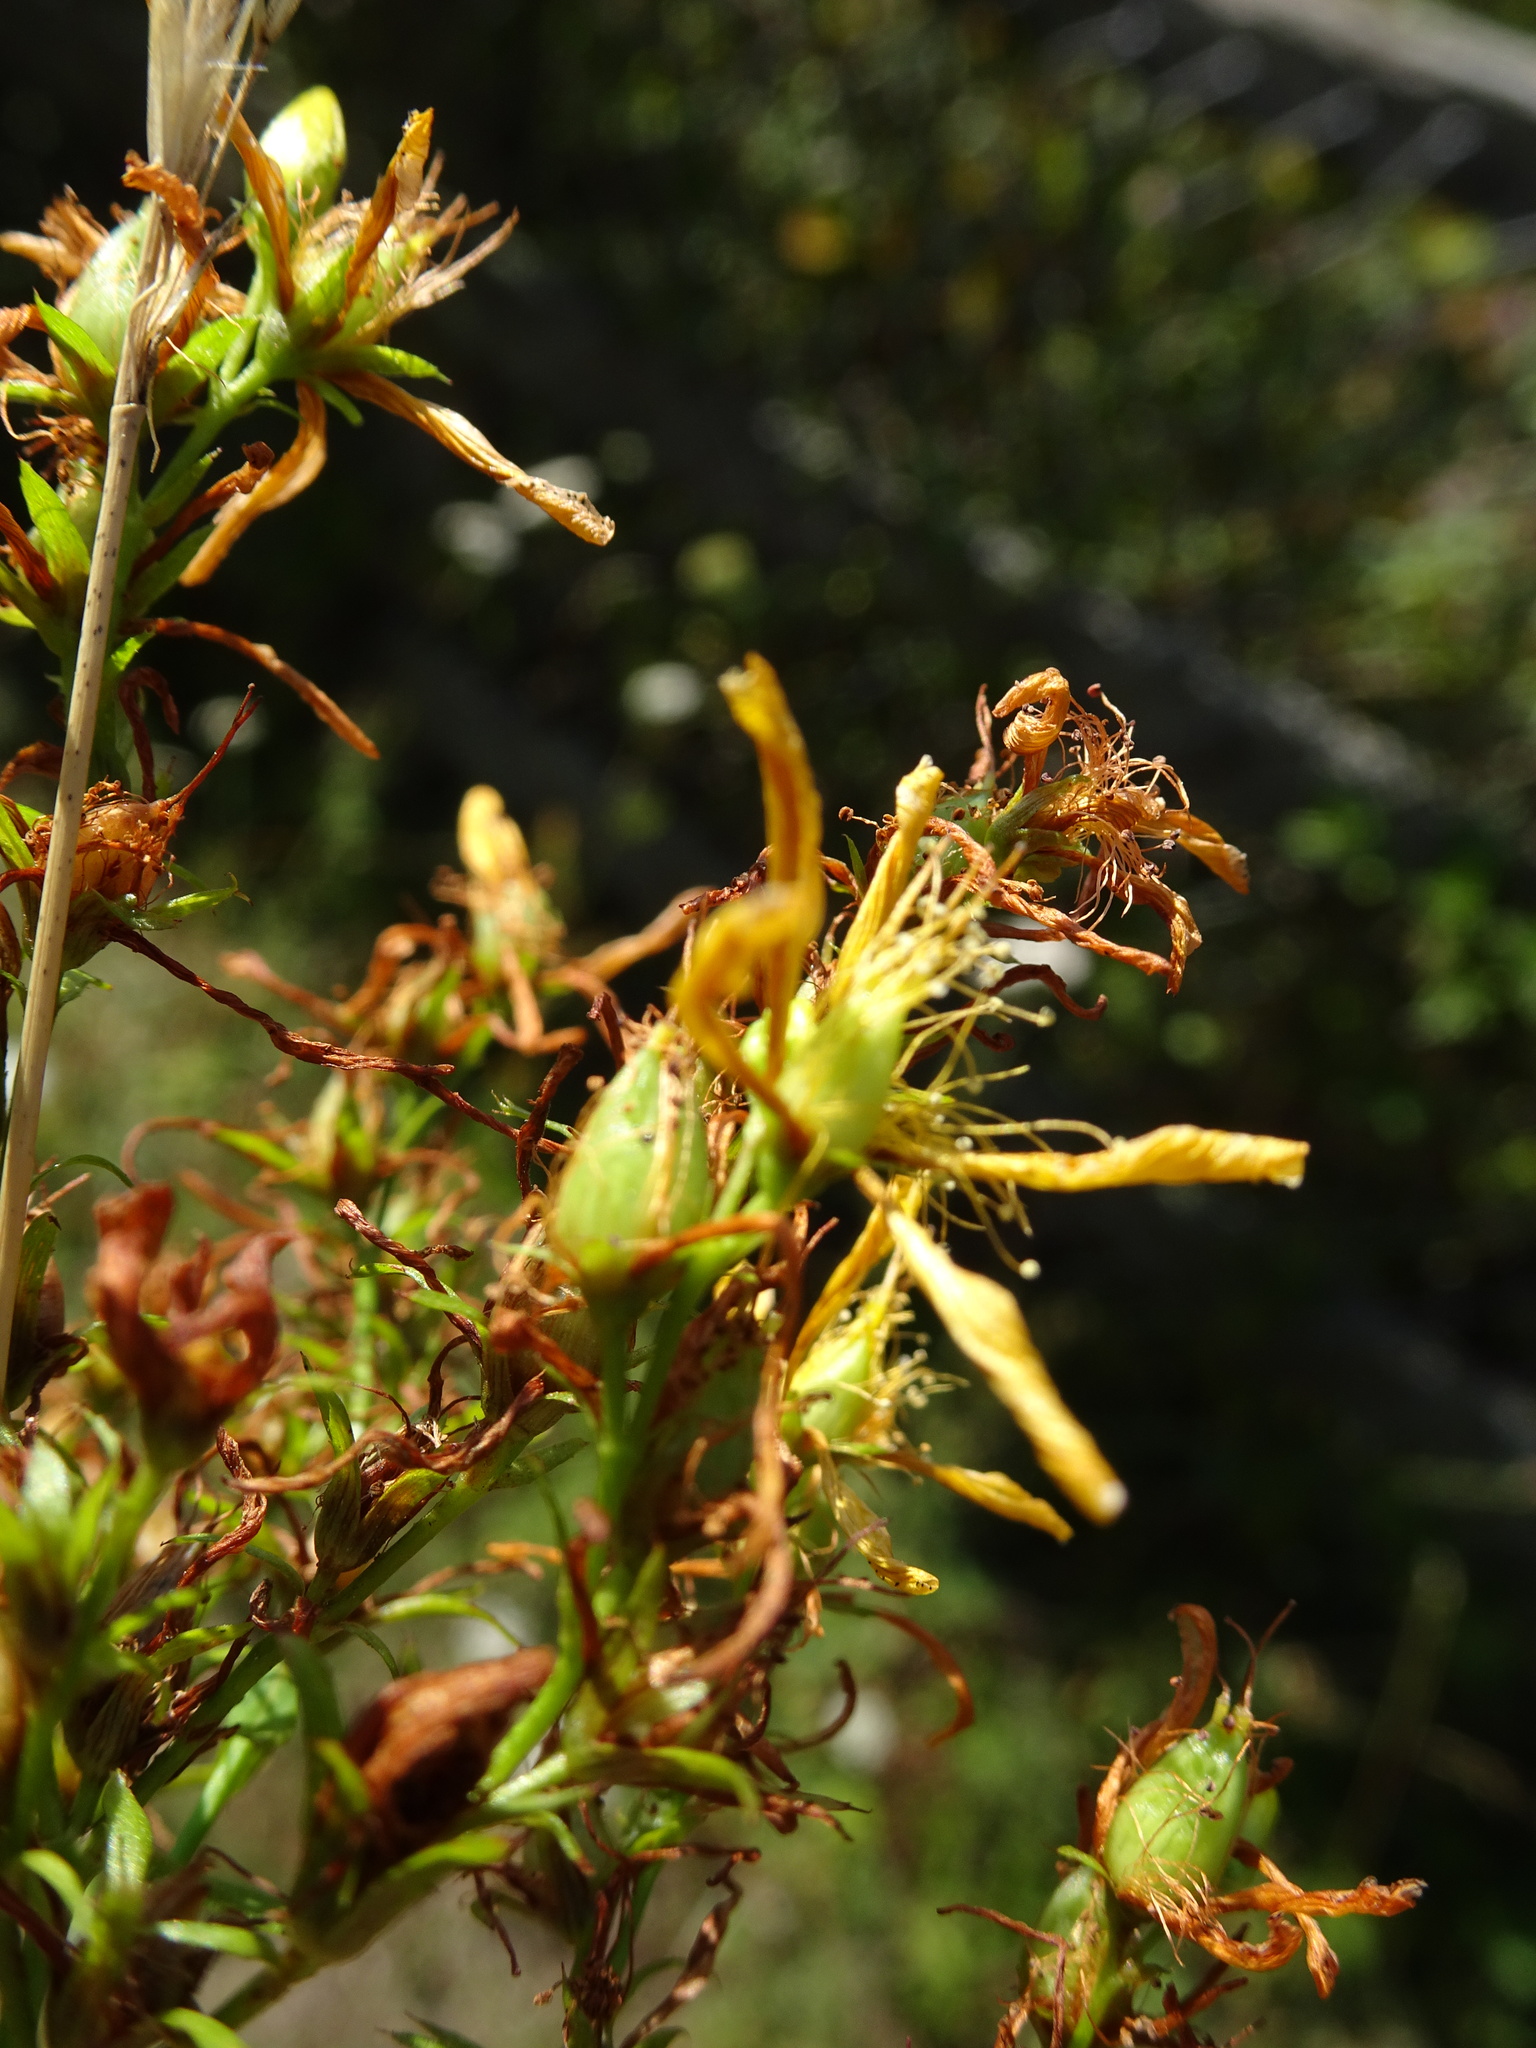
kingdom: Plantae
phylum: Tracheophyta
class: Magnoliopsida
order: Malpighiales
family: Hypericaceae
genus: Hypericum
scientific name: Hypericum perforatum
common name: Common st. johnswort
